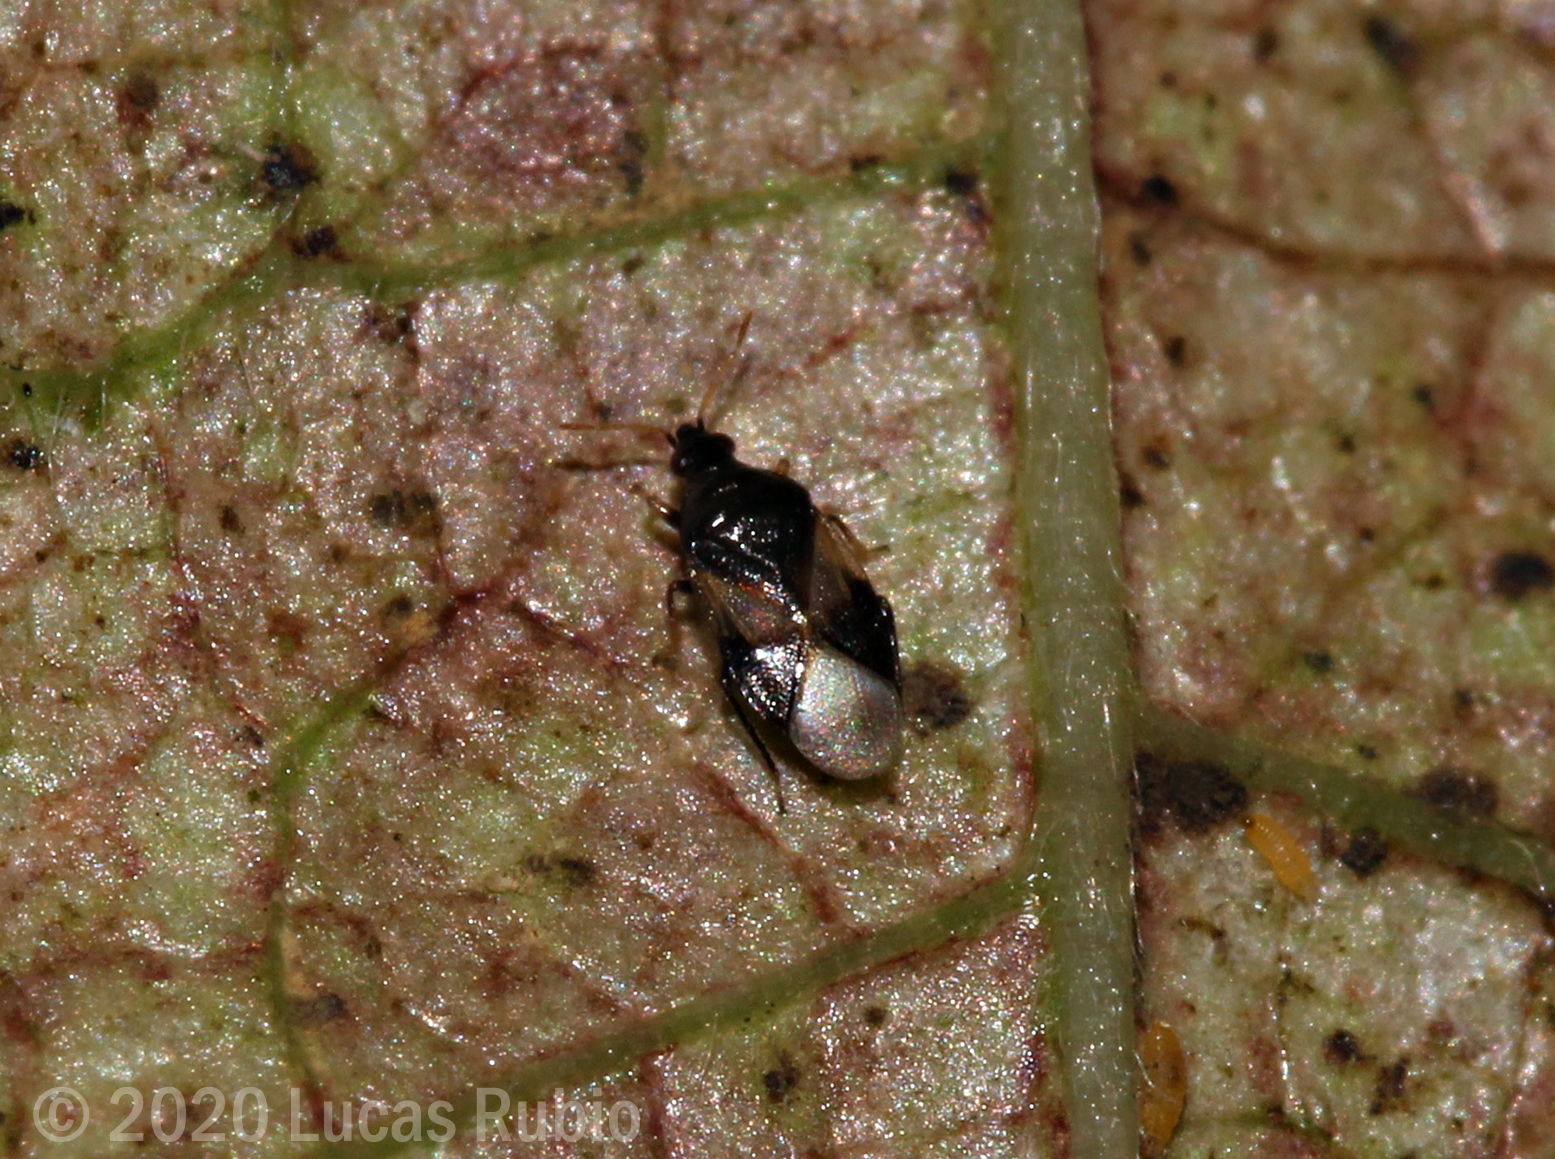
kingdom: Animalia
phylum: Arthropoda
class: Insecta
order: Hemiptera
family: Anthocoridae
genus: Orius
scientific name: Orius insidiosus
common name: Insidious flower bug
